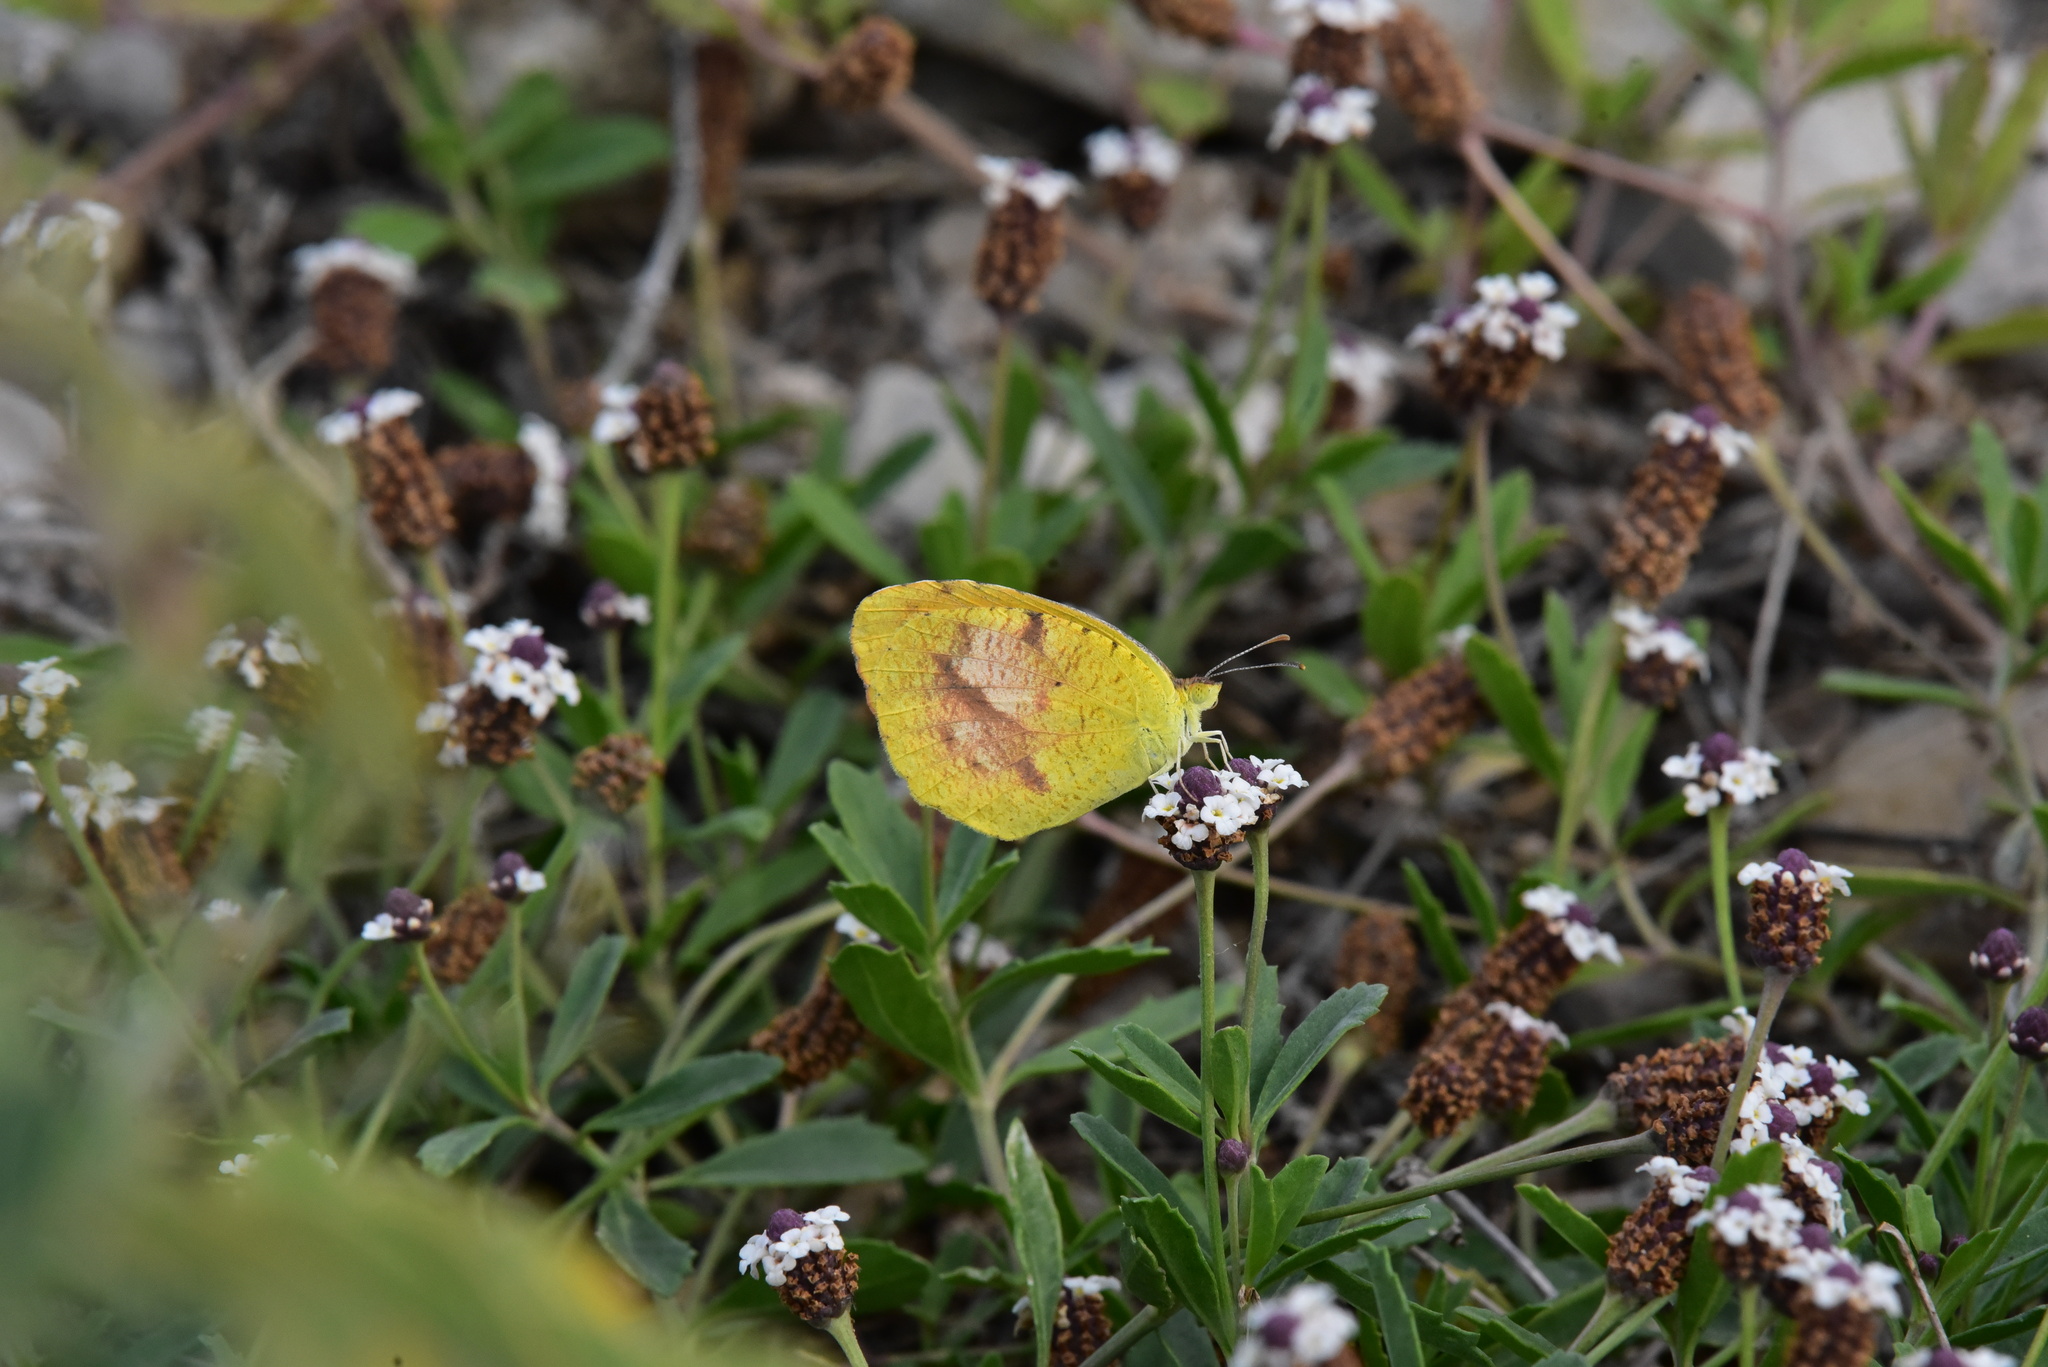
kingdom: Animalia
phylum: Arthropoda
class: Insecta
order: Lepidoptera
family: Pieridae
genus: Abaeis
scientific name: Abaeis nicippe
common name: Sleepy orange
